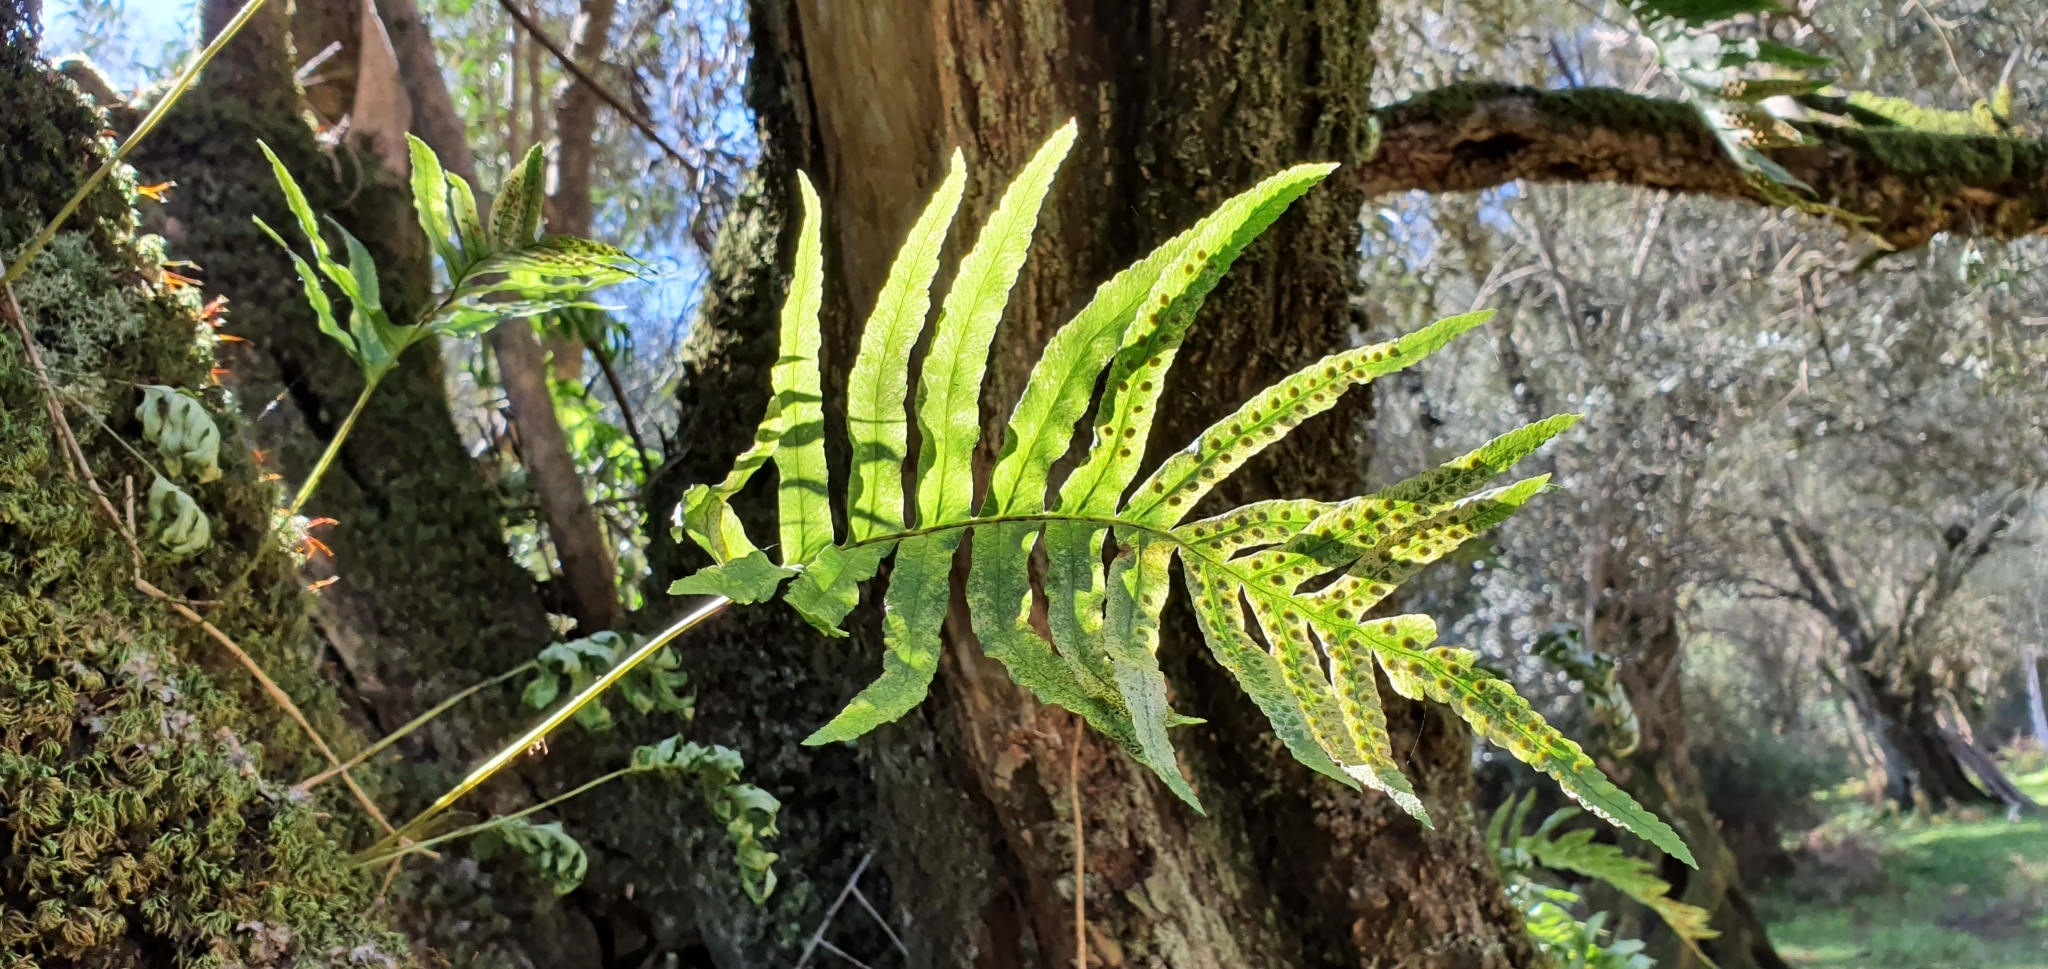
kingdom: Plantae
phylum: Tracheophyta
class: Polypodiopsida
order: Polypodiales
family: Polypodiaceae
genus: Polypodium
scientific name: Polypodium cambricum
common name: Southern polypody
